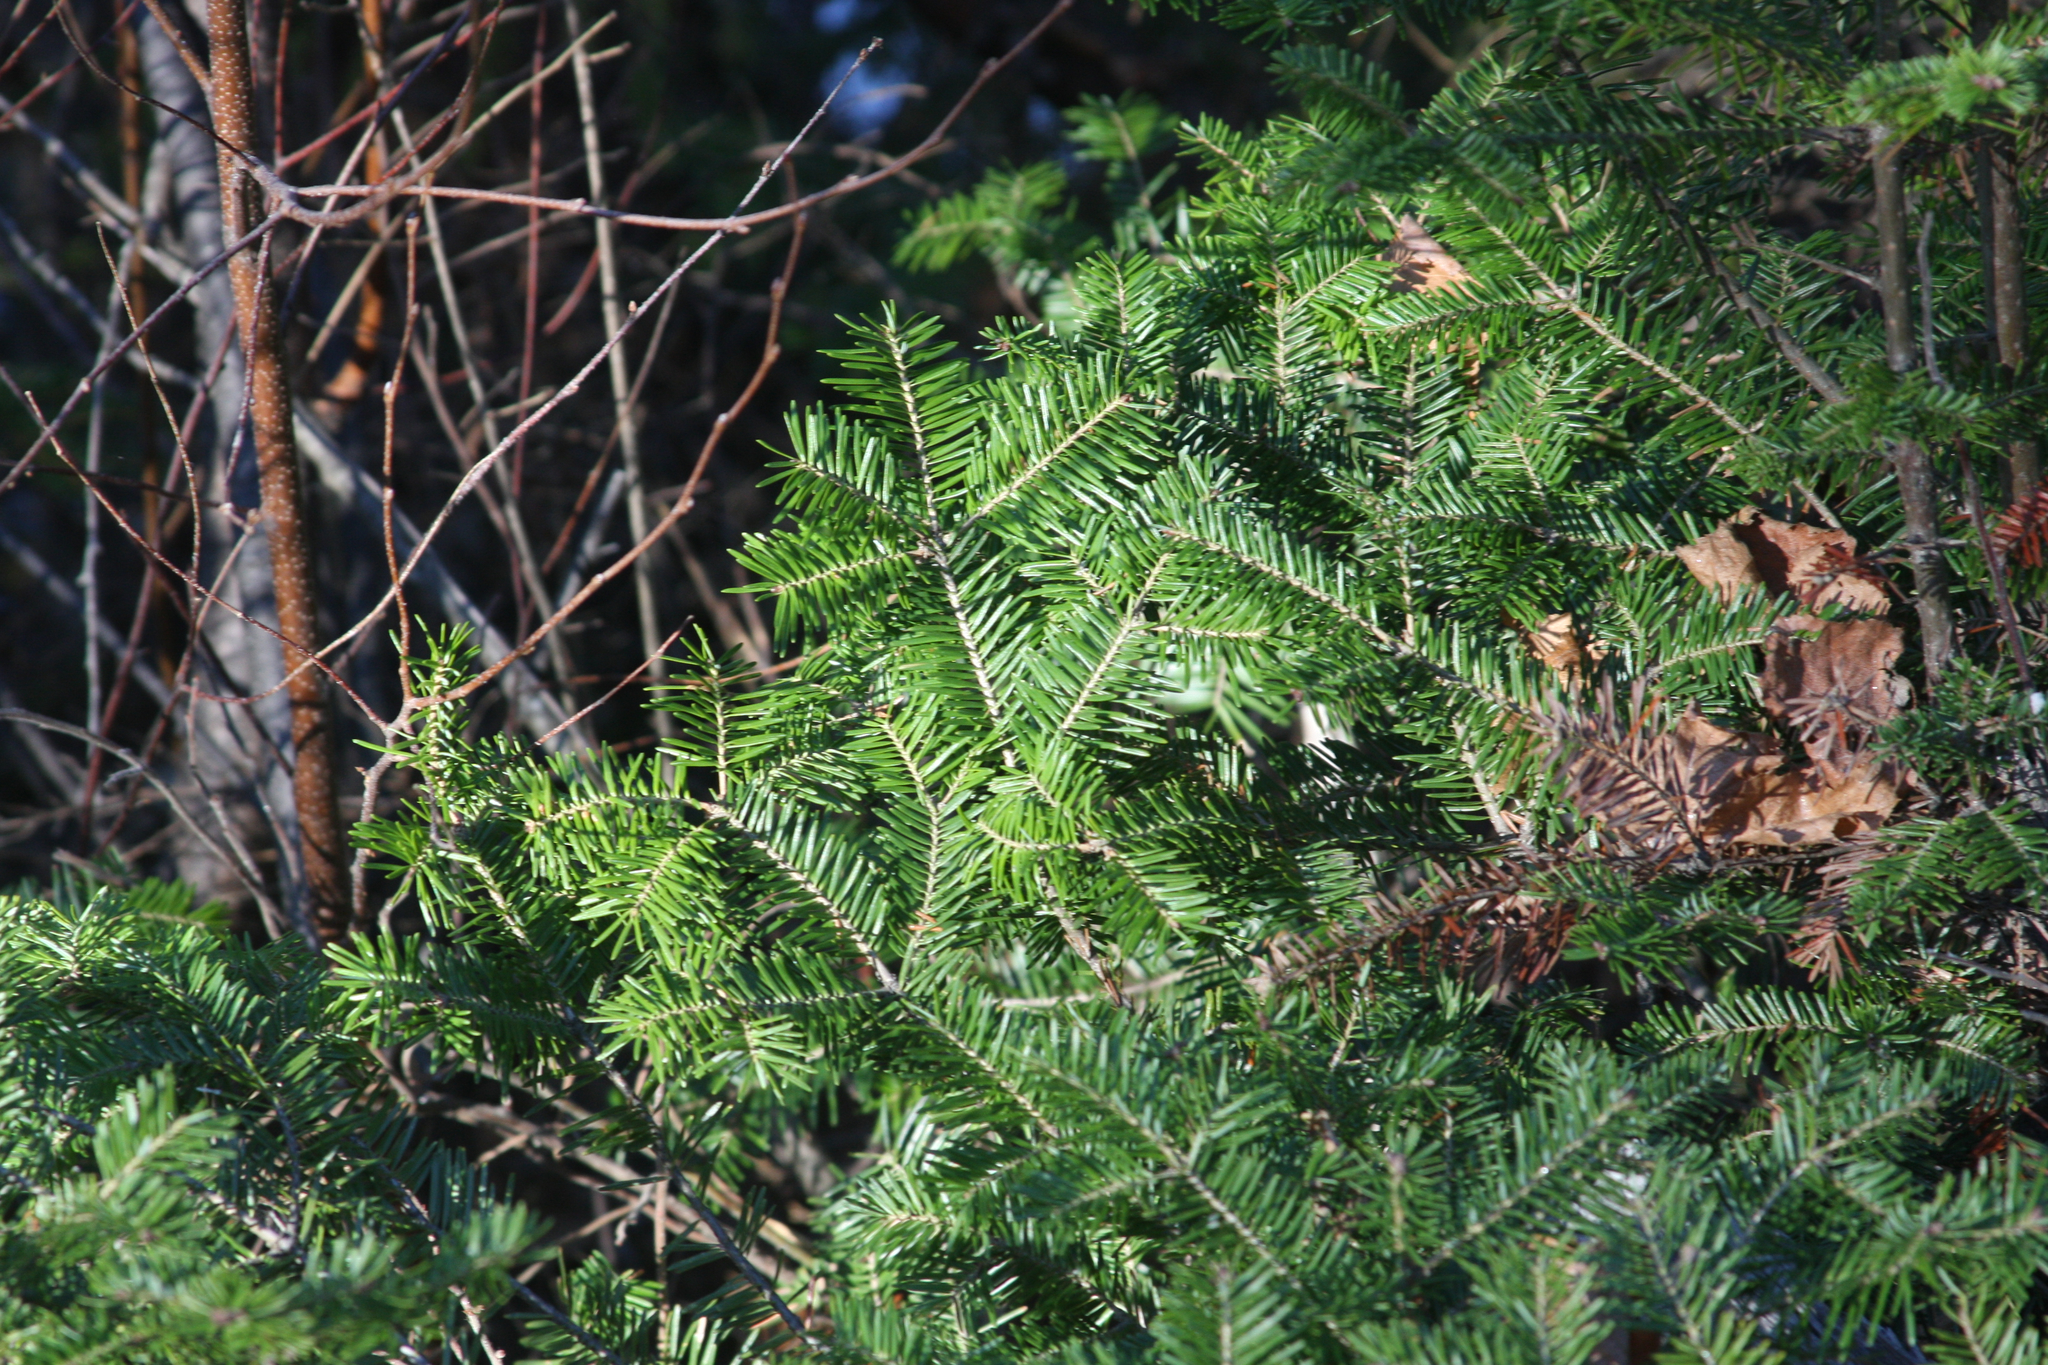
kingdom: Plantae
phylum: Tracheophyta
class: Pinopsida
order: Pinales
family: Pinaceae
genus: Abies
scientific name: Abies balsamea
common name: Balsam fir
